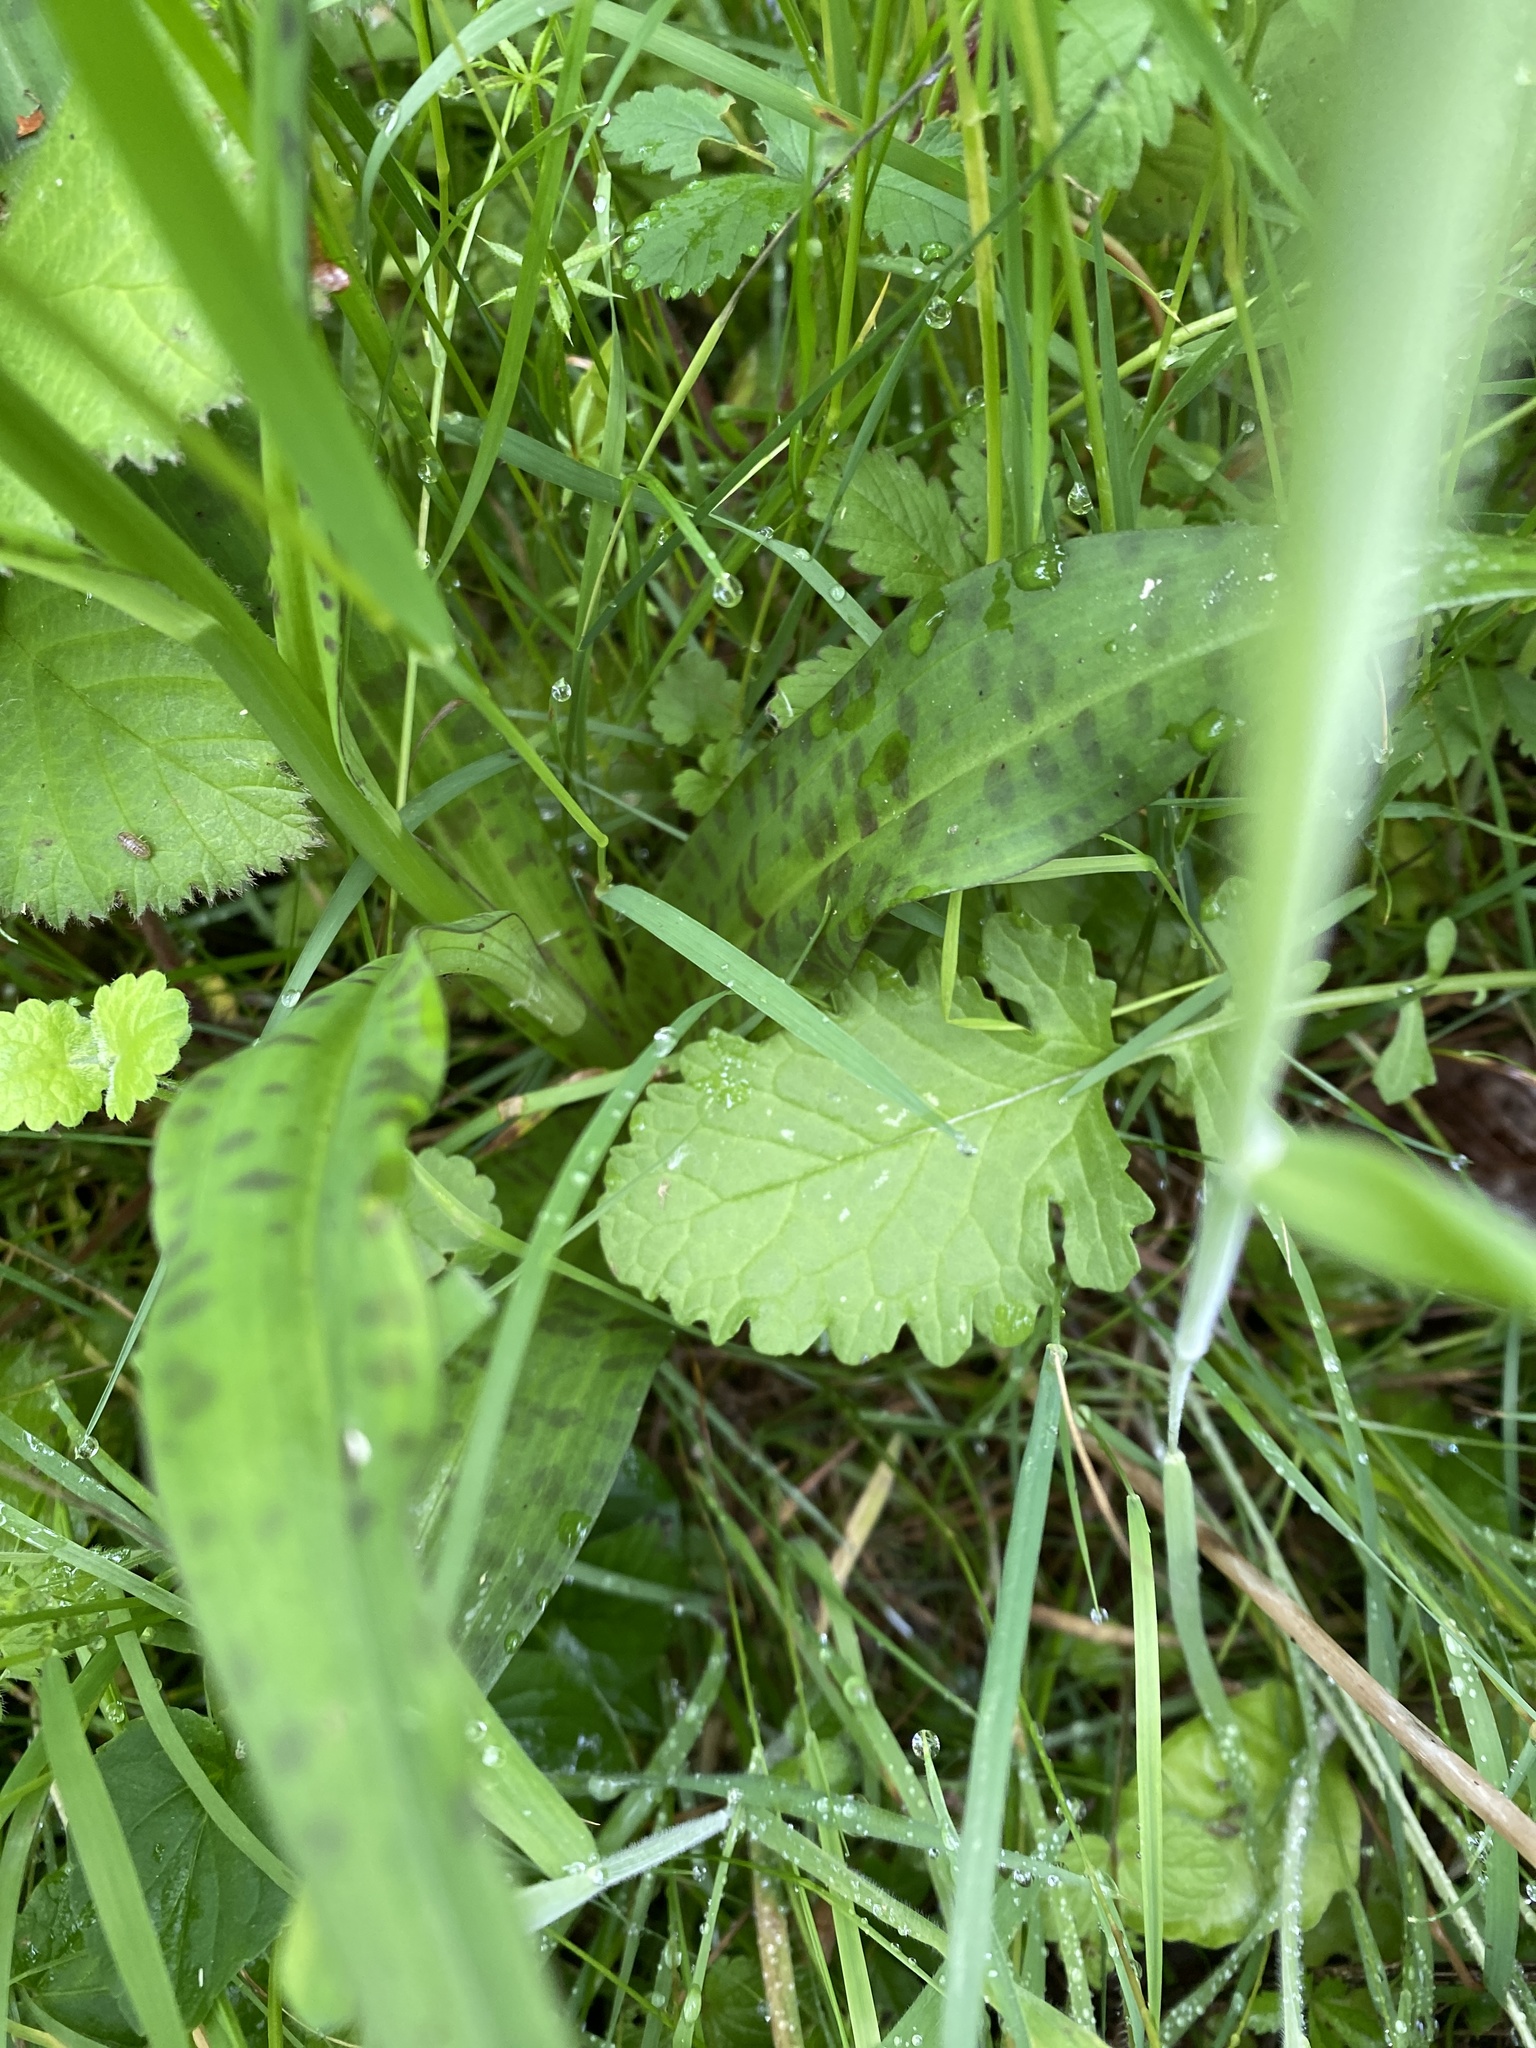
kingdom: Plantae
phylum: Tracheophyta
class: Liliopsida
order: Asparagales
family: Orchidaceae
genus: Dactylorhiza
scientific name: Dactylorhiza maculata
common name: Heath spotted-orchid
